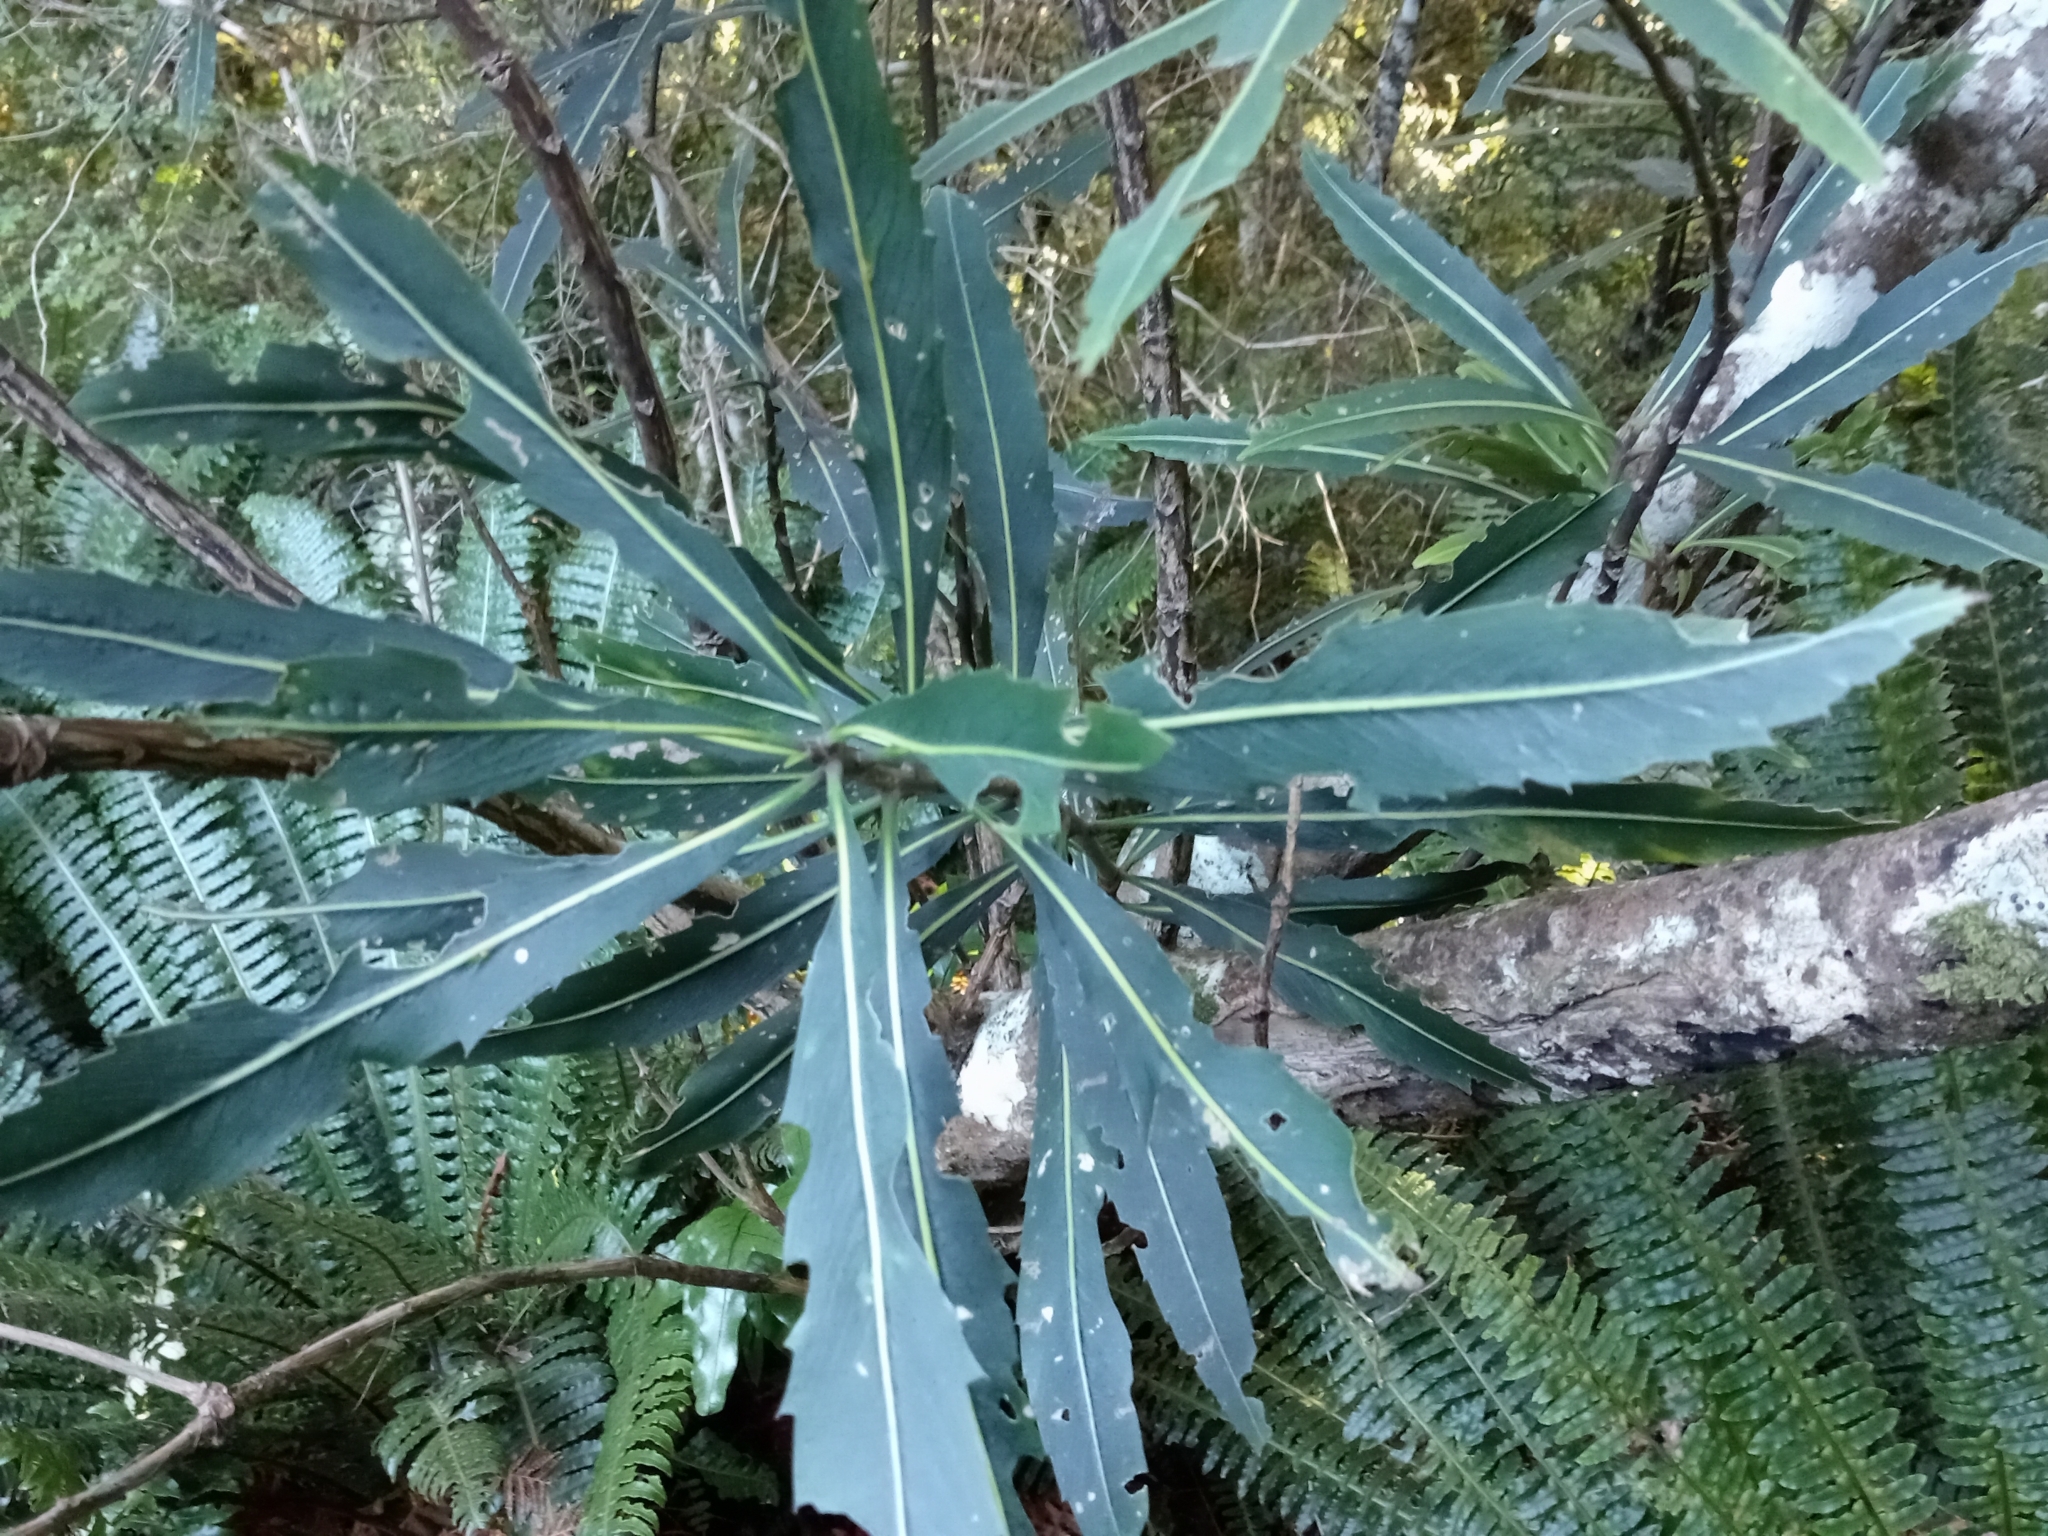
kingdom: Plantae
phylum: Tracheophyta
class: Magnoliopsida
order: Apiales
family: Araliaceae
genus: Pseudopanax
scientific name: Pseudopanax crassifolius
